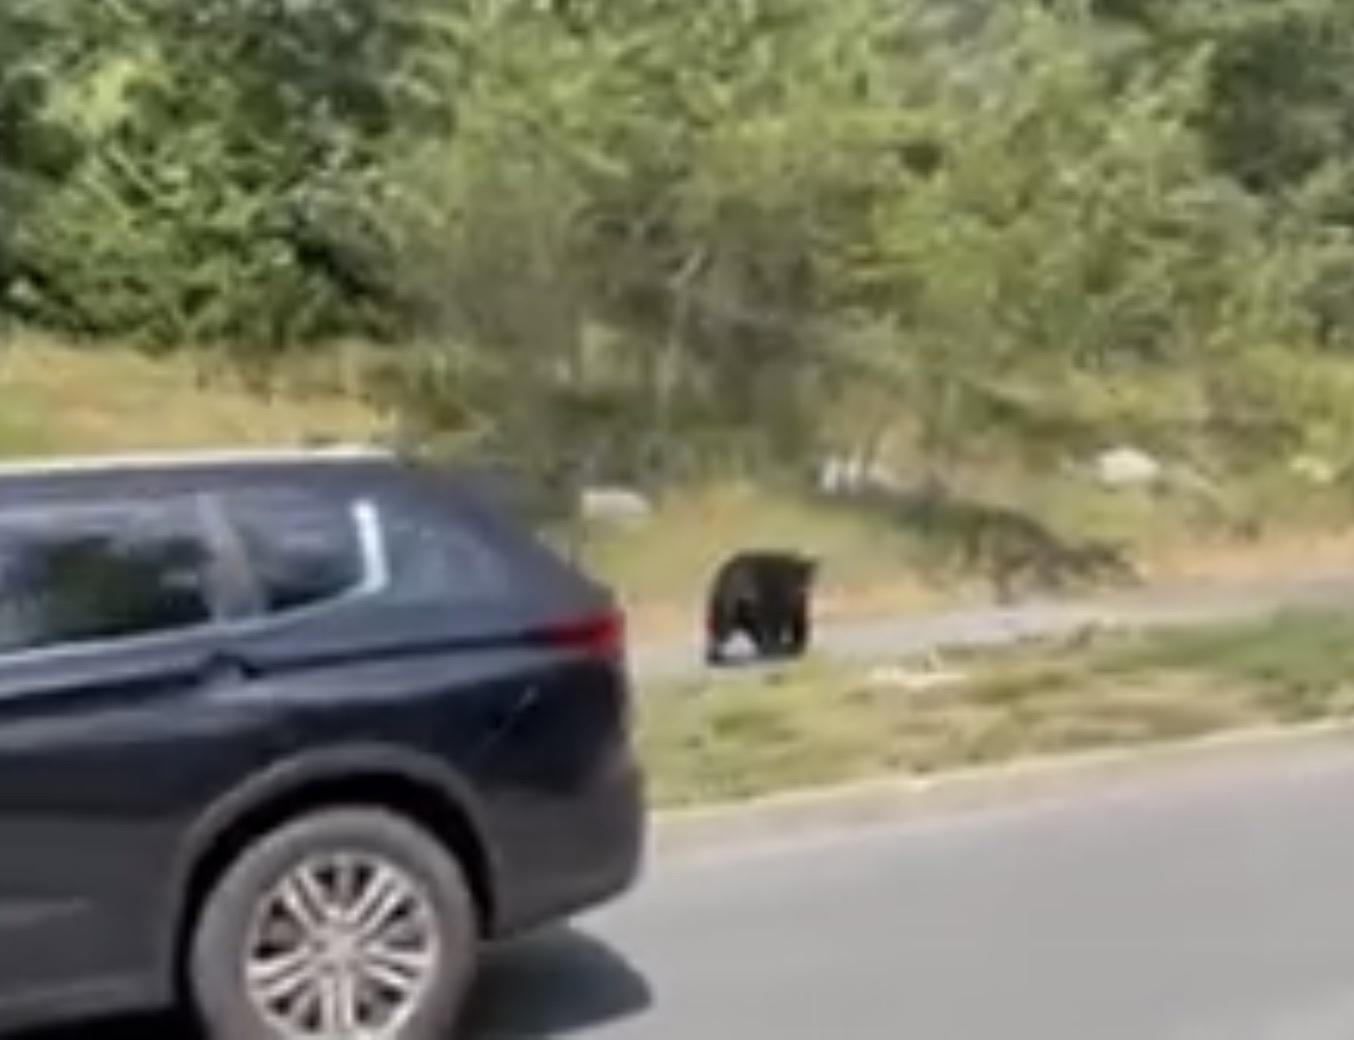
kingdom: Animalia
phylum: Chordata
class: Mammalia
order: Carnivora
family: Ursidae
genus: Ursus
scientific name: Ursus americanus
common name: American black bear
